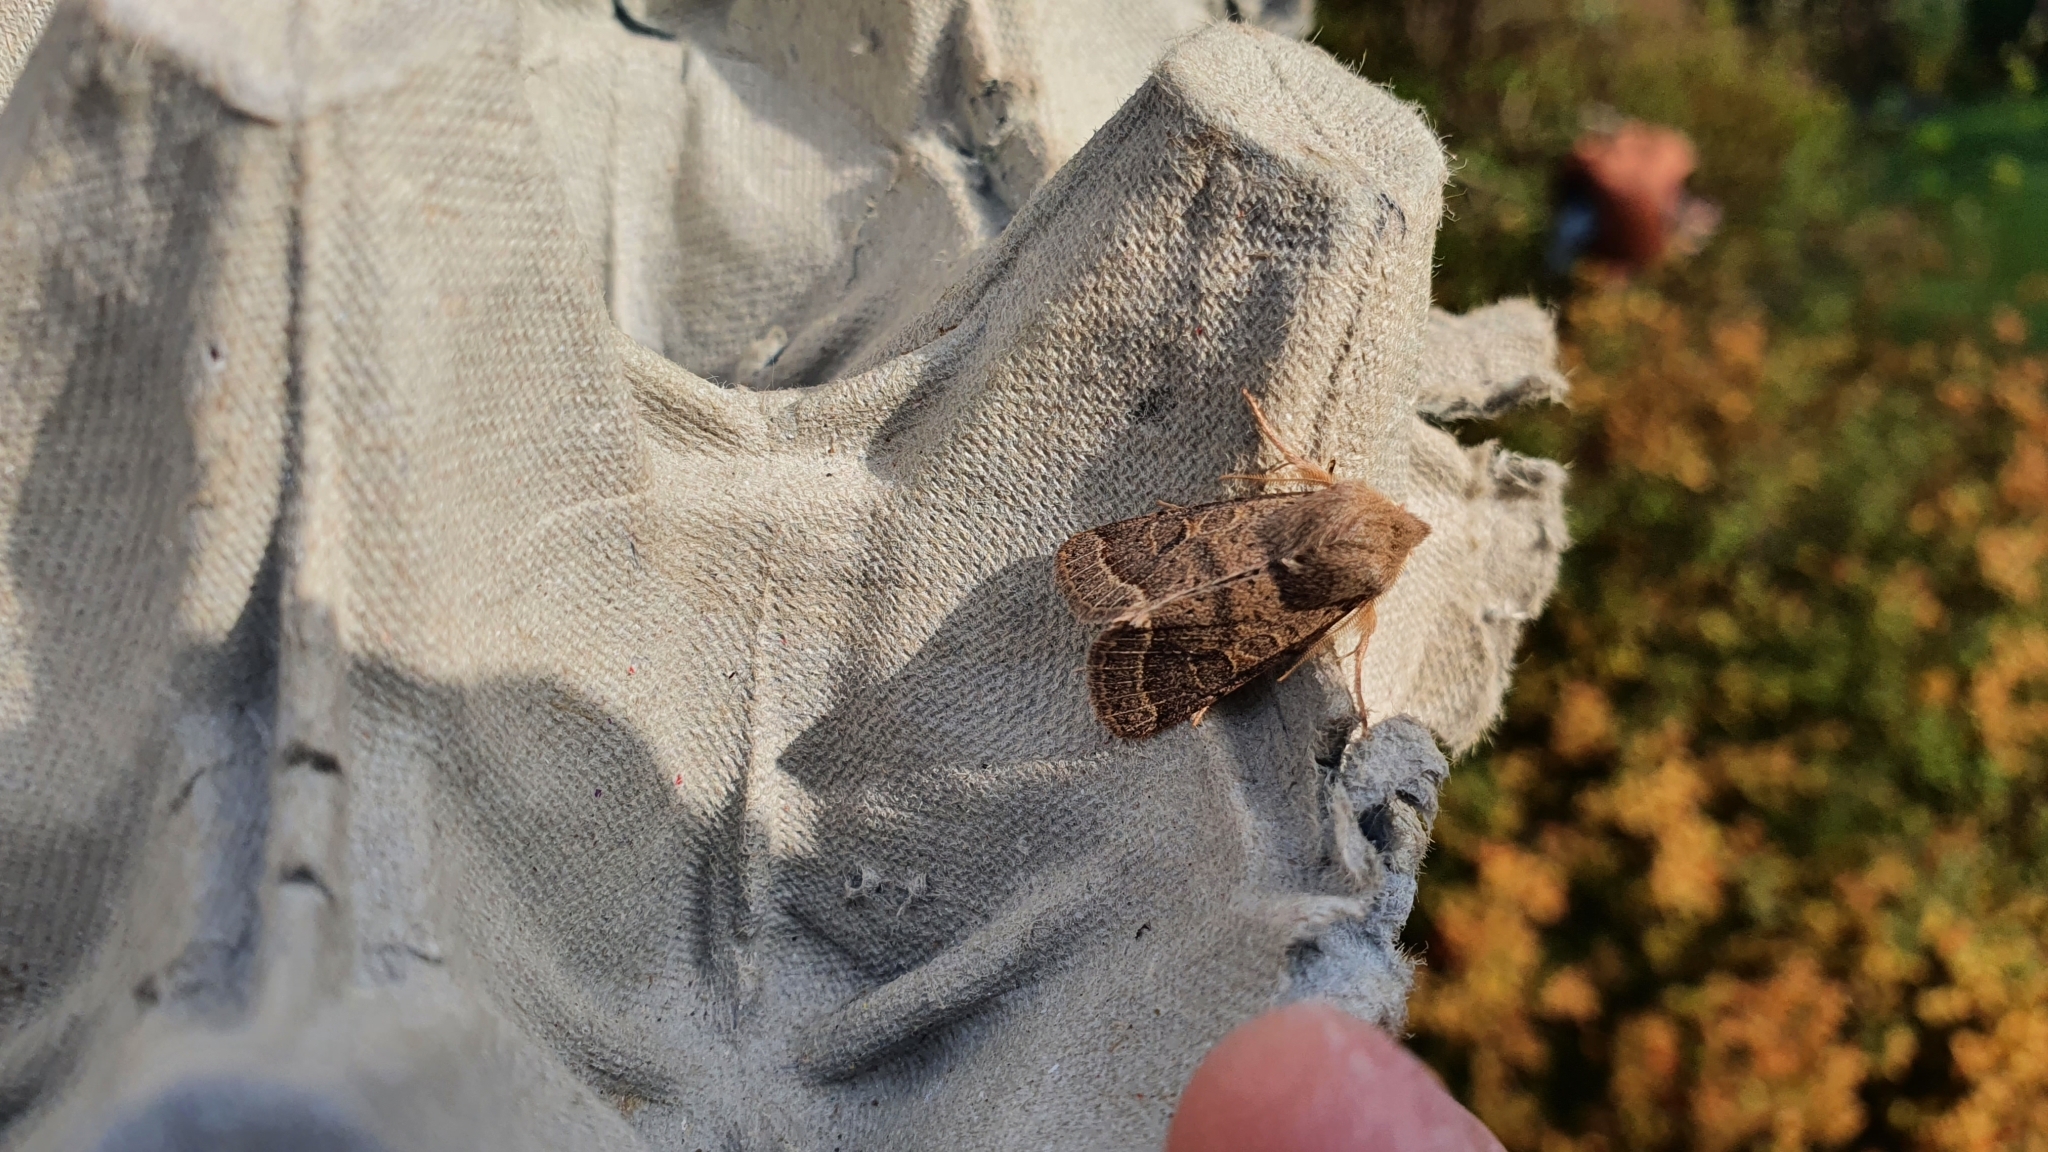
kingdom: Animalia
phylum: Arthropoda
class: Insecta
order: Lepidoptera
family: Noctuidae
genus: Orthosia
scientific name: Orthosia cerasi
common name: Common quaker
